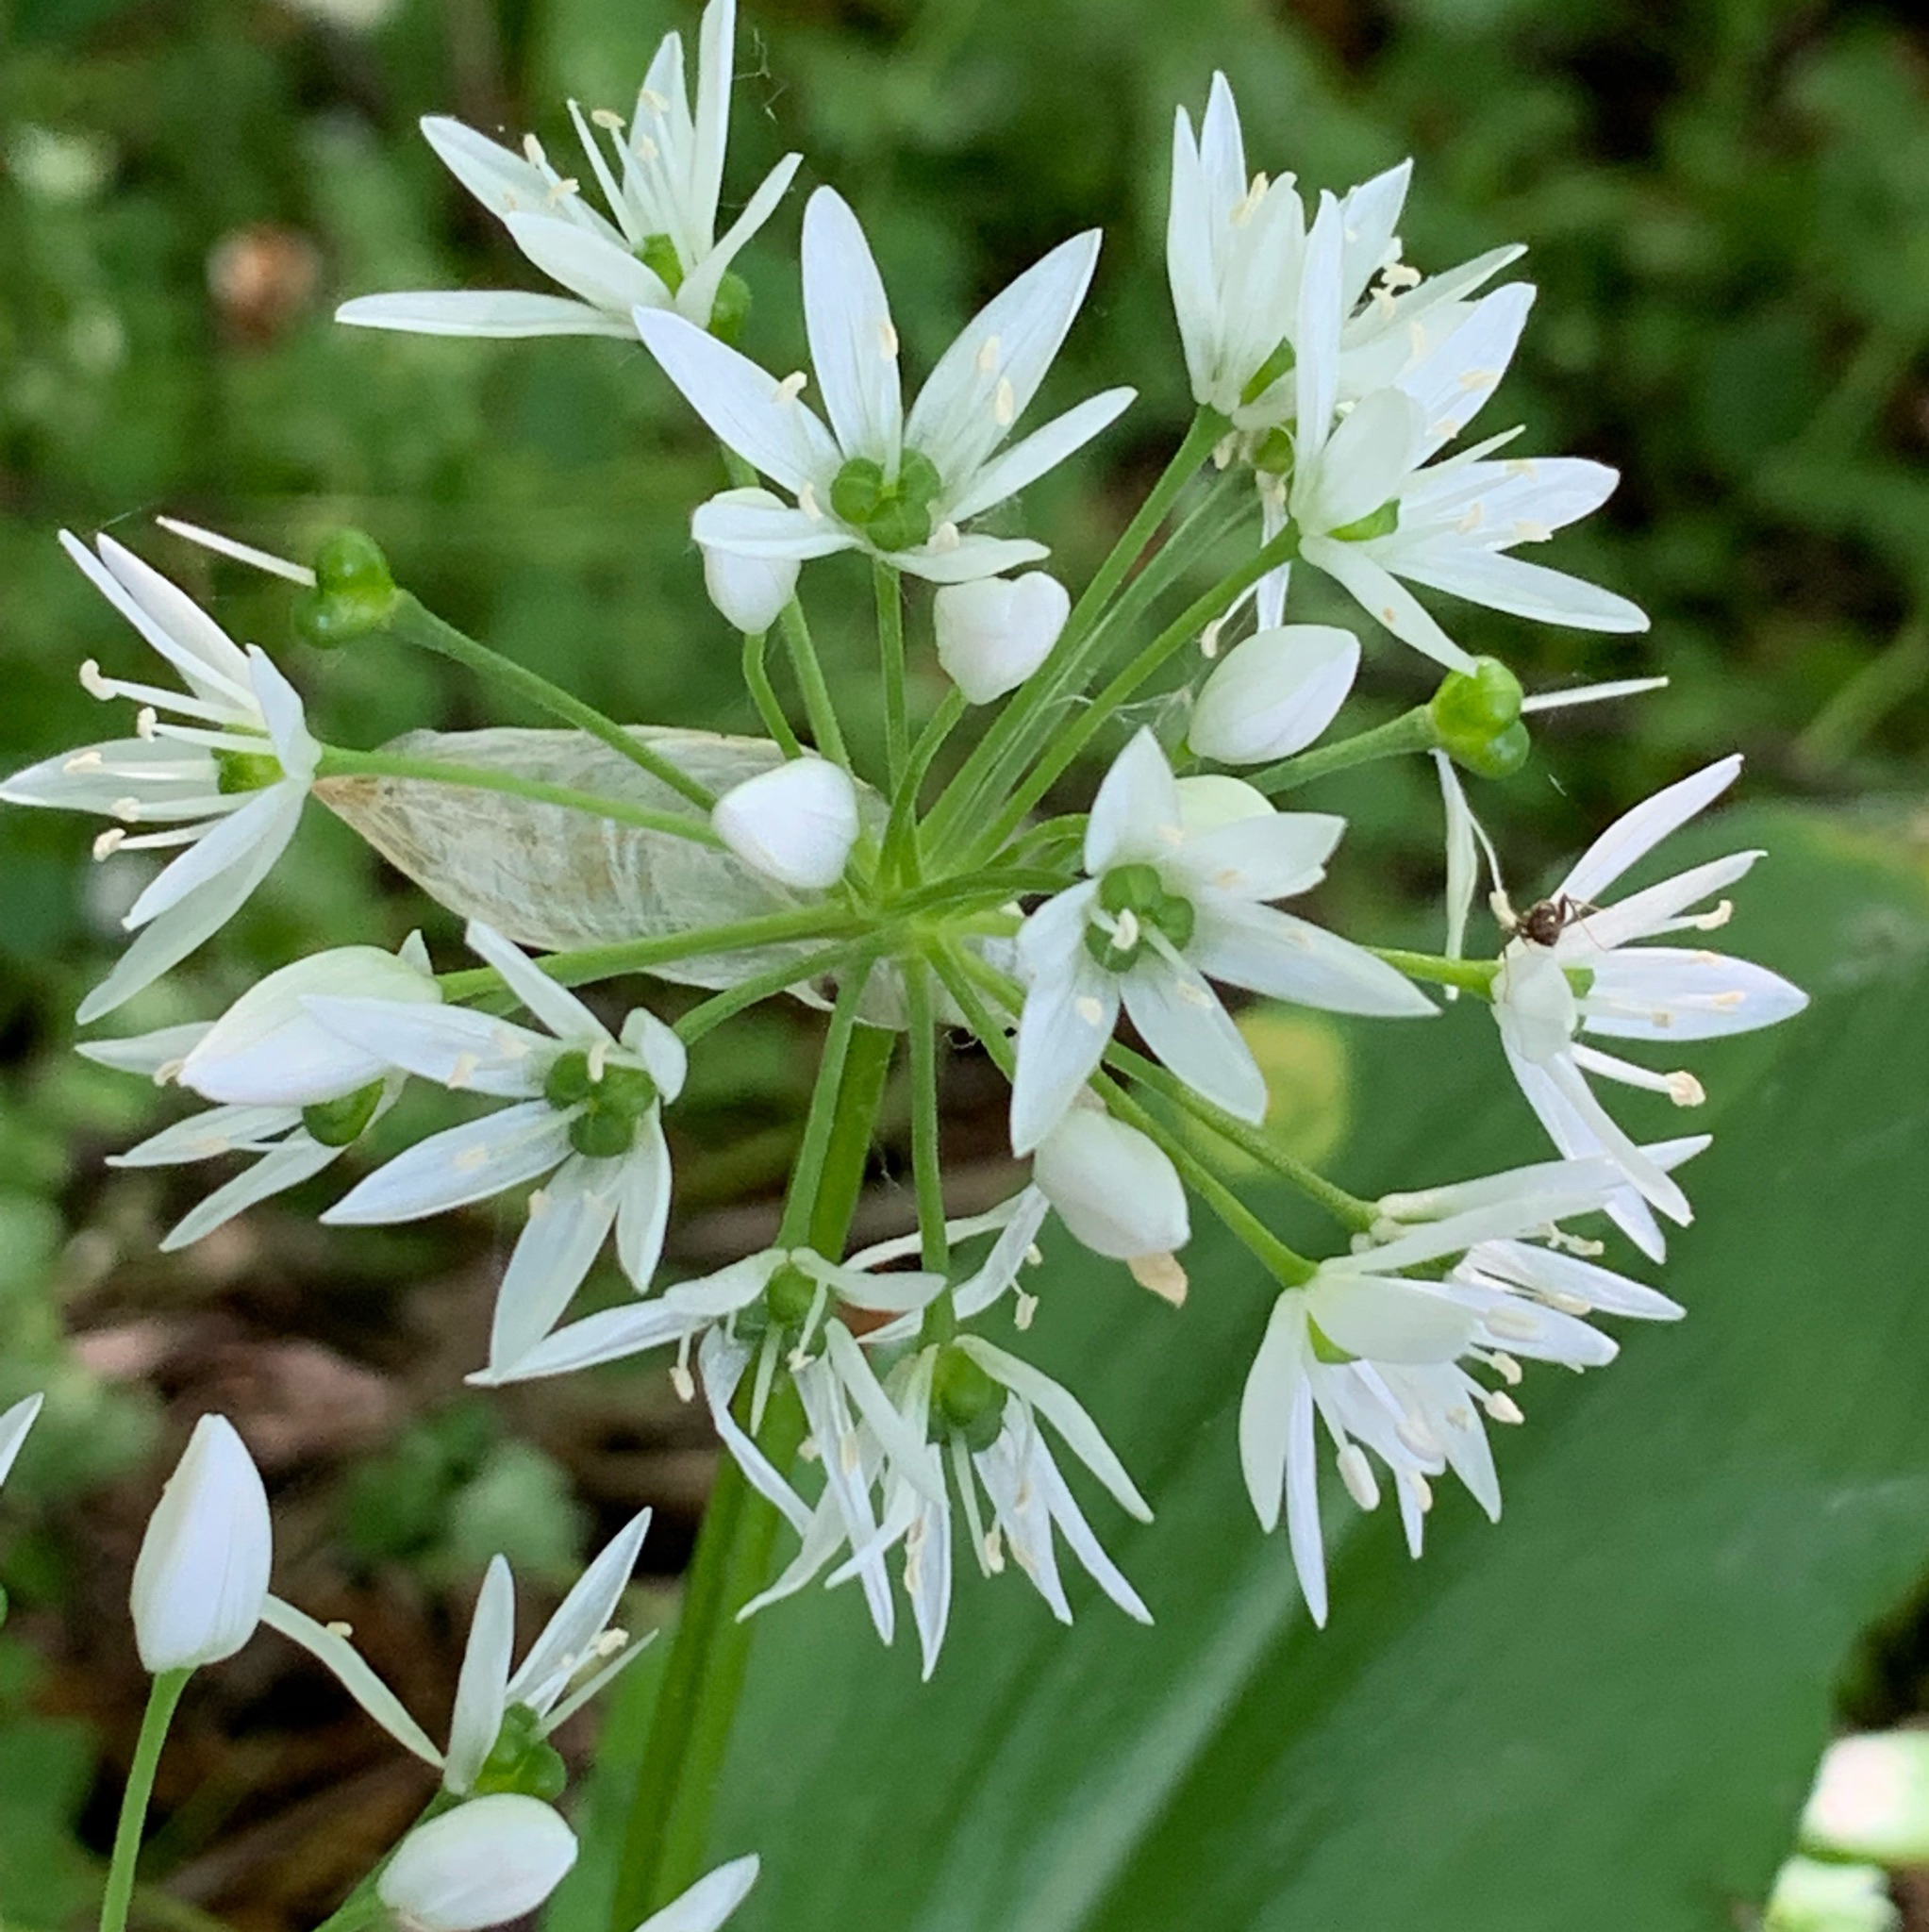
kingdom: Plantae
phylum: Tracheophyta
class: Liliopsida
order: Asparagales
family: Amaryllidaceae
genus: Allium
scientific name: Allium ursinum
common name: Ramsons
